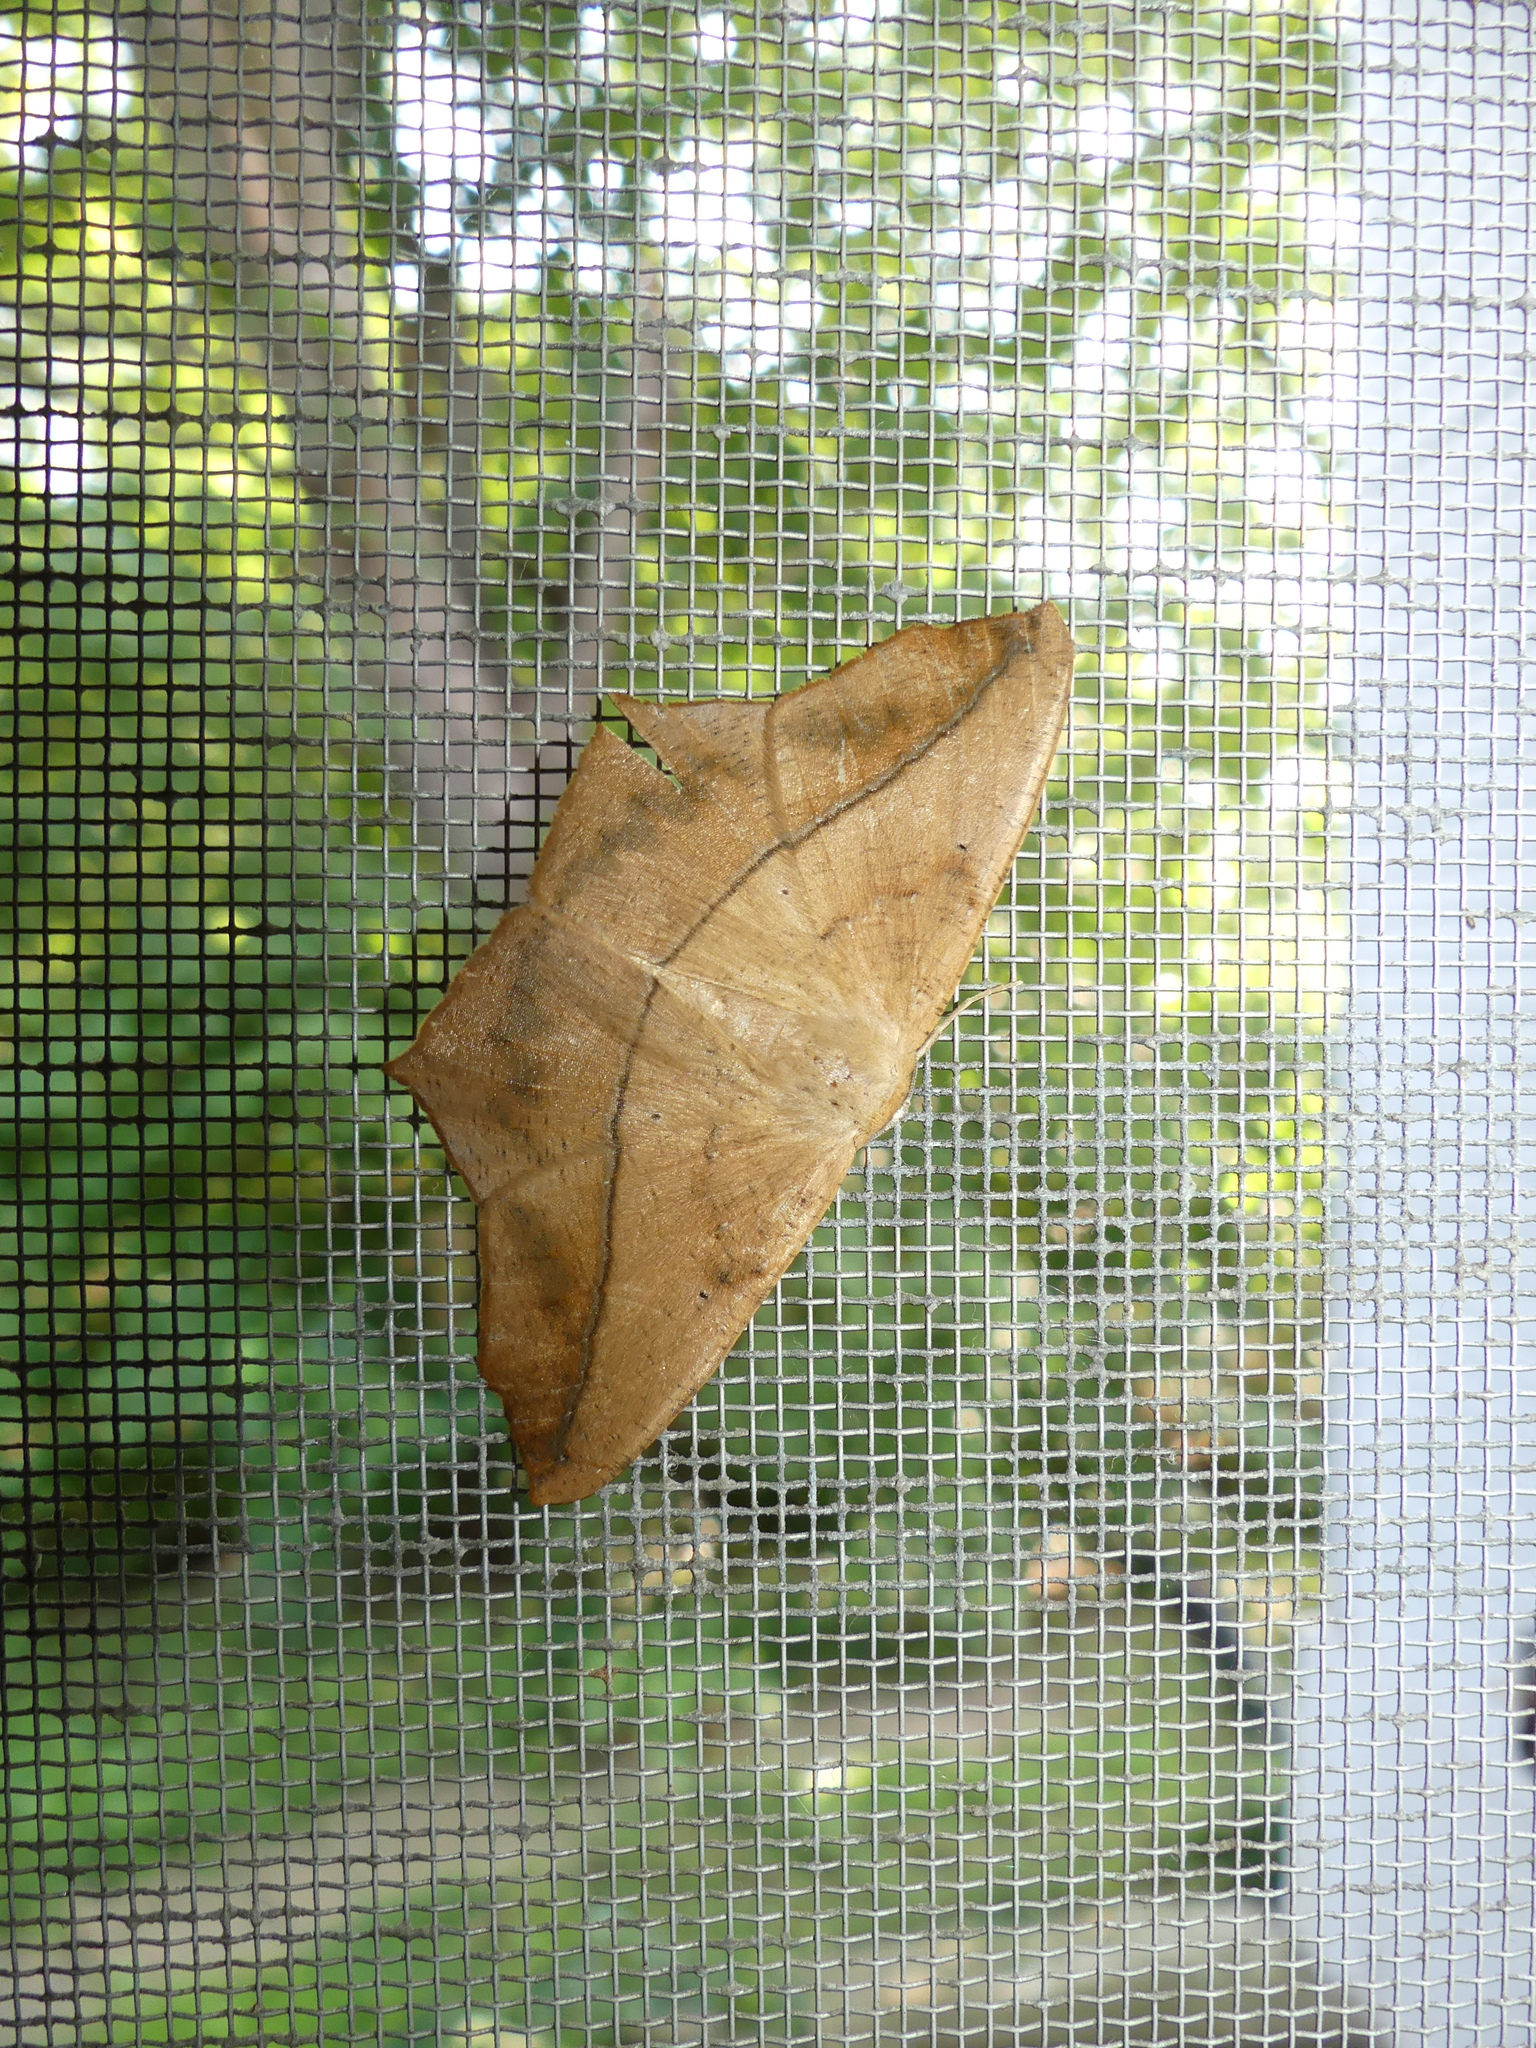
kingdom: Animalia
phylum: Arthropoda
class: Insecta
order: Lepidoptera
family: Geometridae
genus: Prochoerodes
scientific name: Prochoerodes lineola
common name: Large maple spanworm
